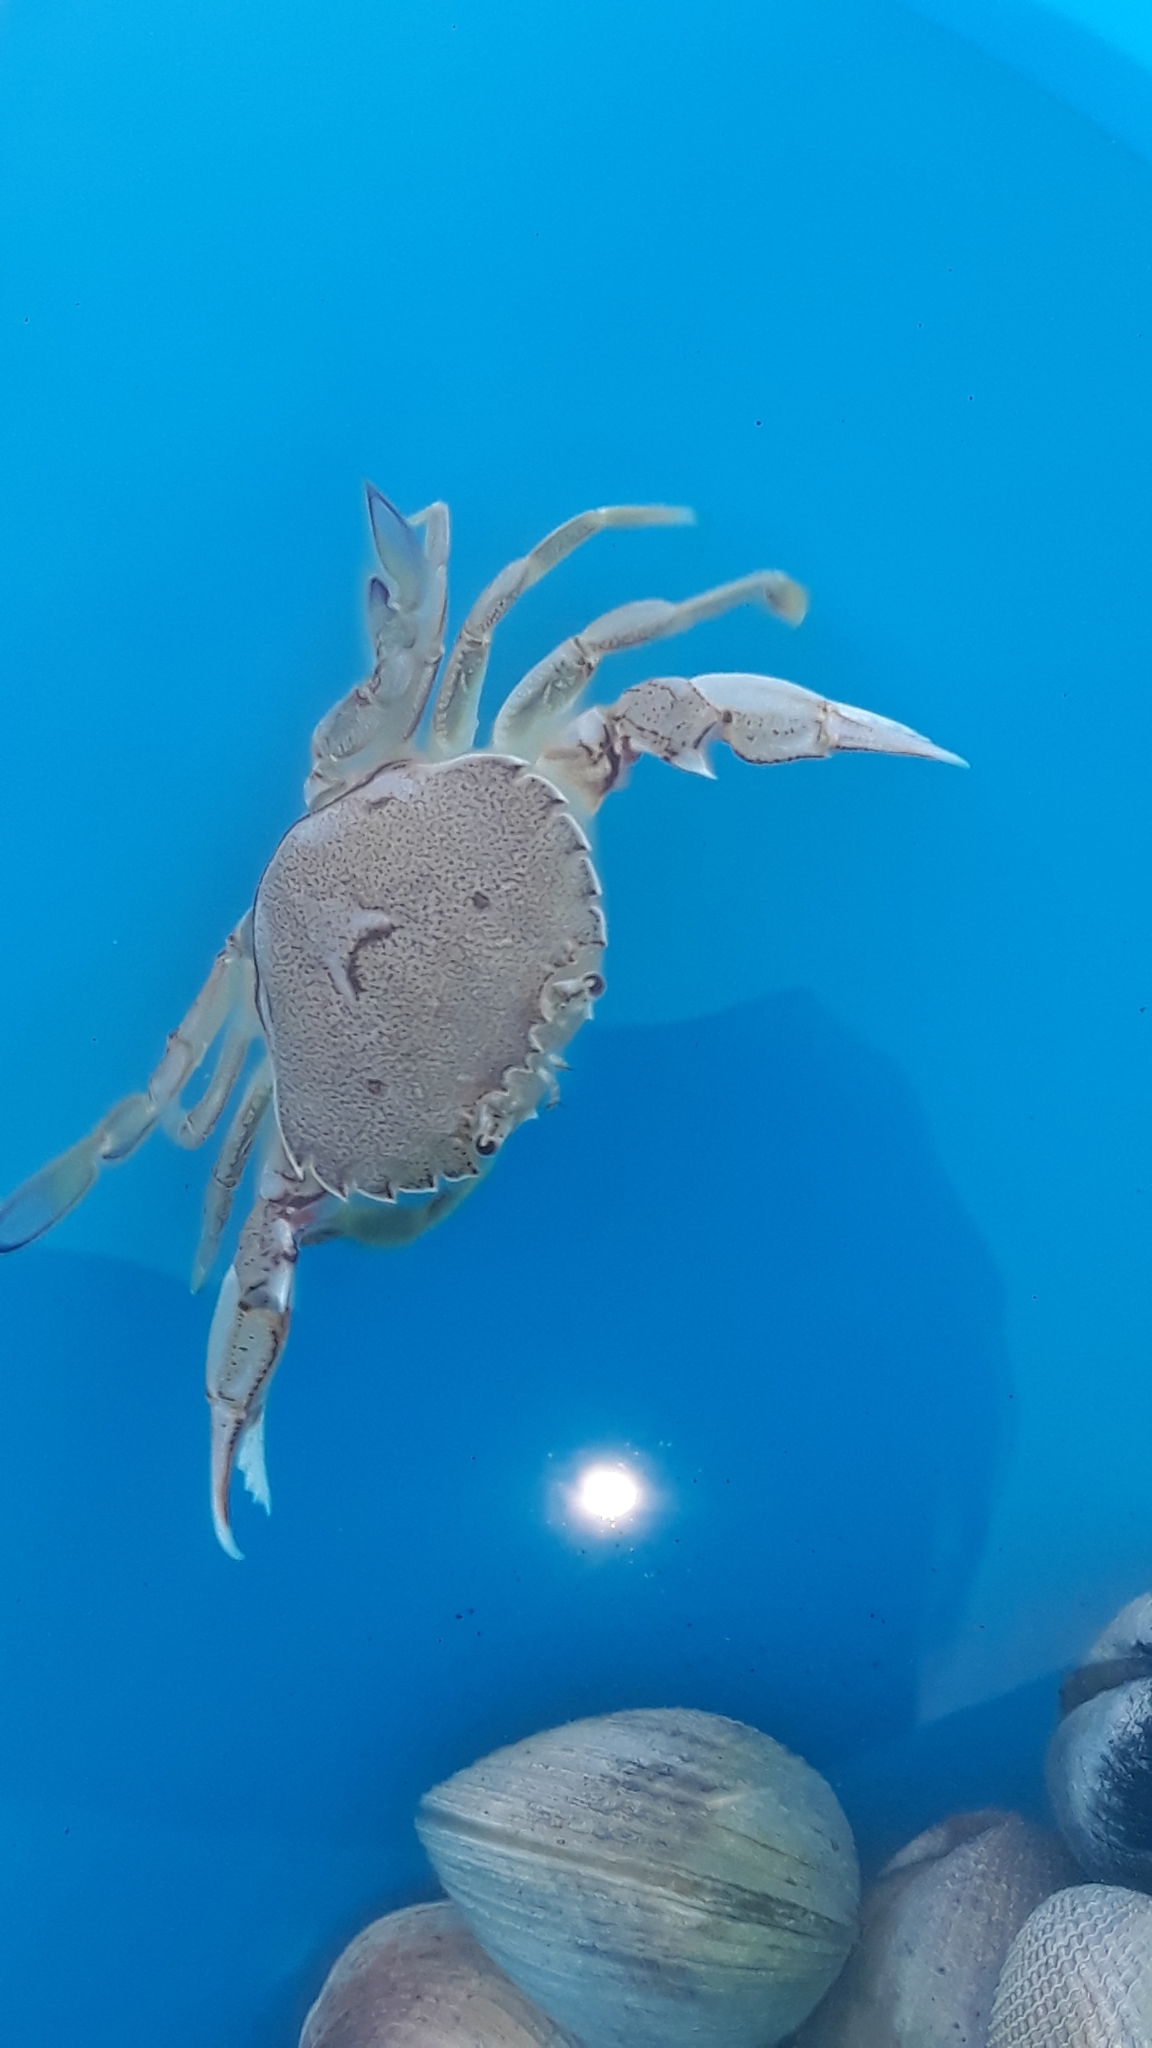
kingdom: Animalia
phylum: Arthropoda
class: Malacostraca
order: Decapoda
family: Ovalipidae
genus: Ovalipes
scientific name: Ovalipes catharus
